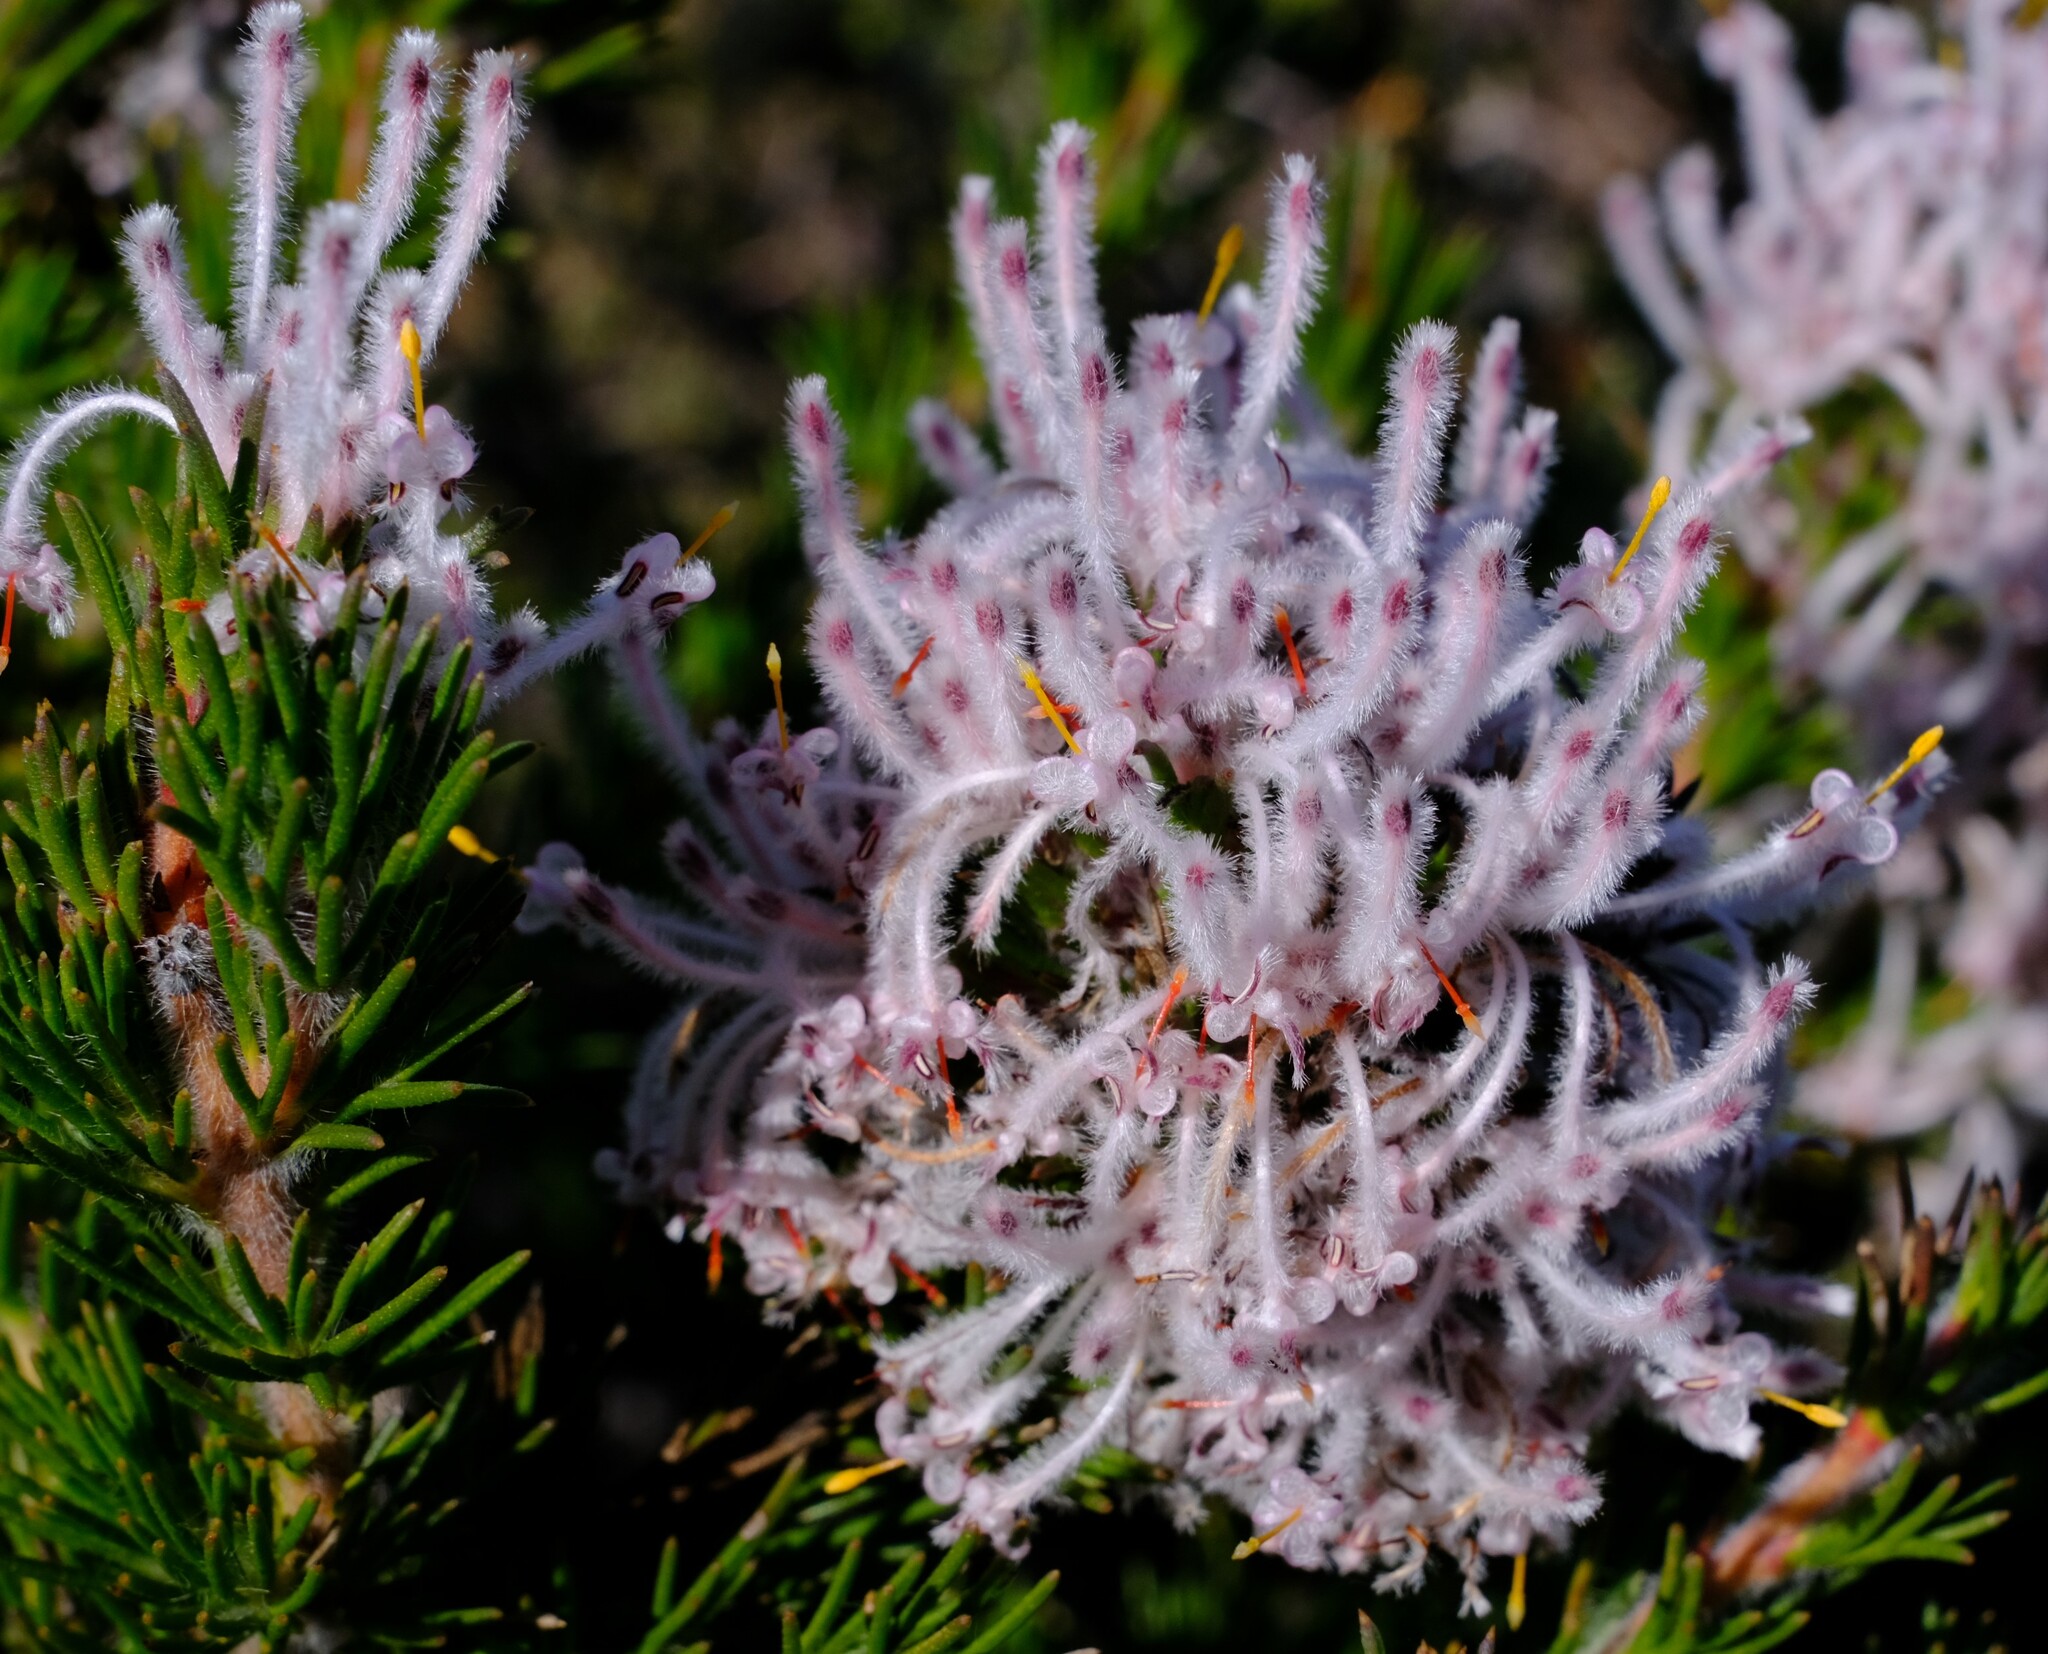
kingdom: Plantae
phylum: Tracheophyta
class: Magnoliopsida
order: Proteales
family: Proteaceae
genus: Isopogon
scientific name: Isopogon inconspicuus
